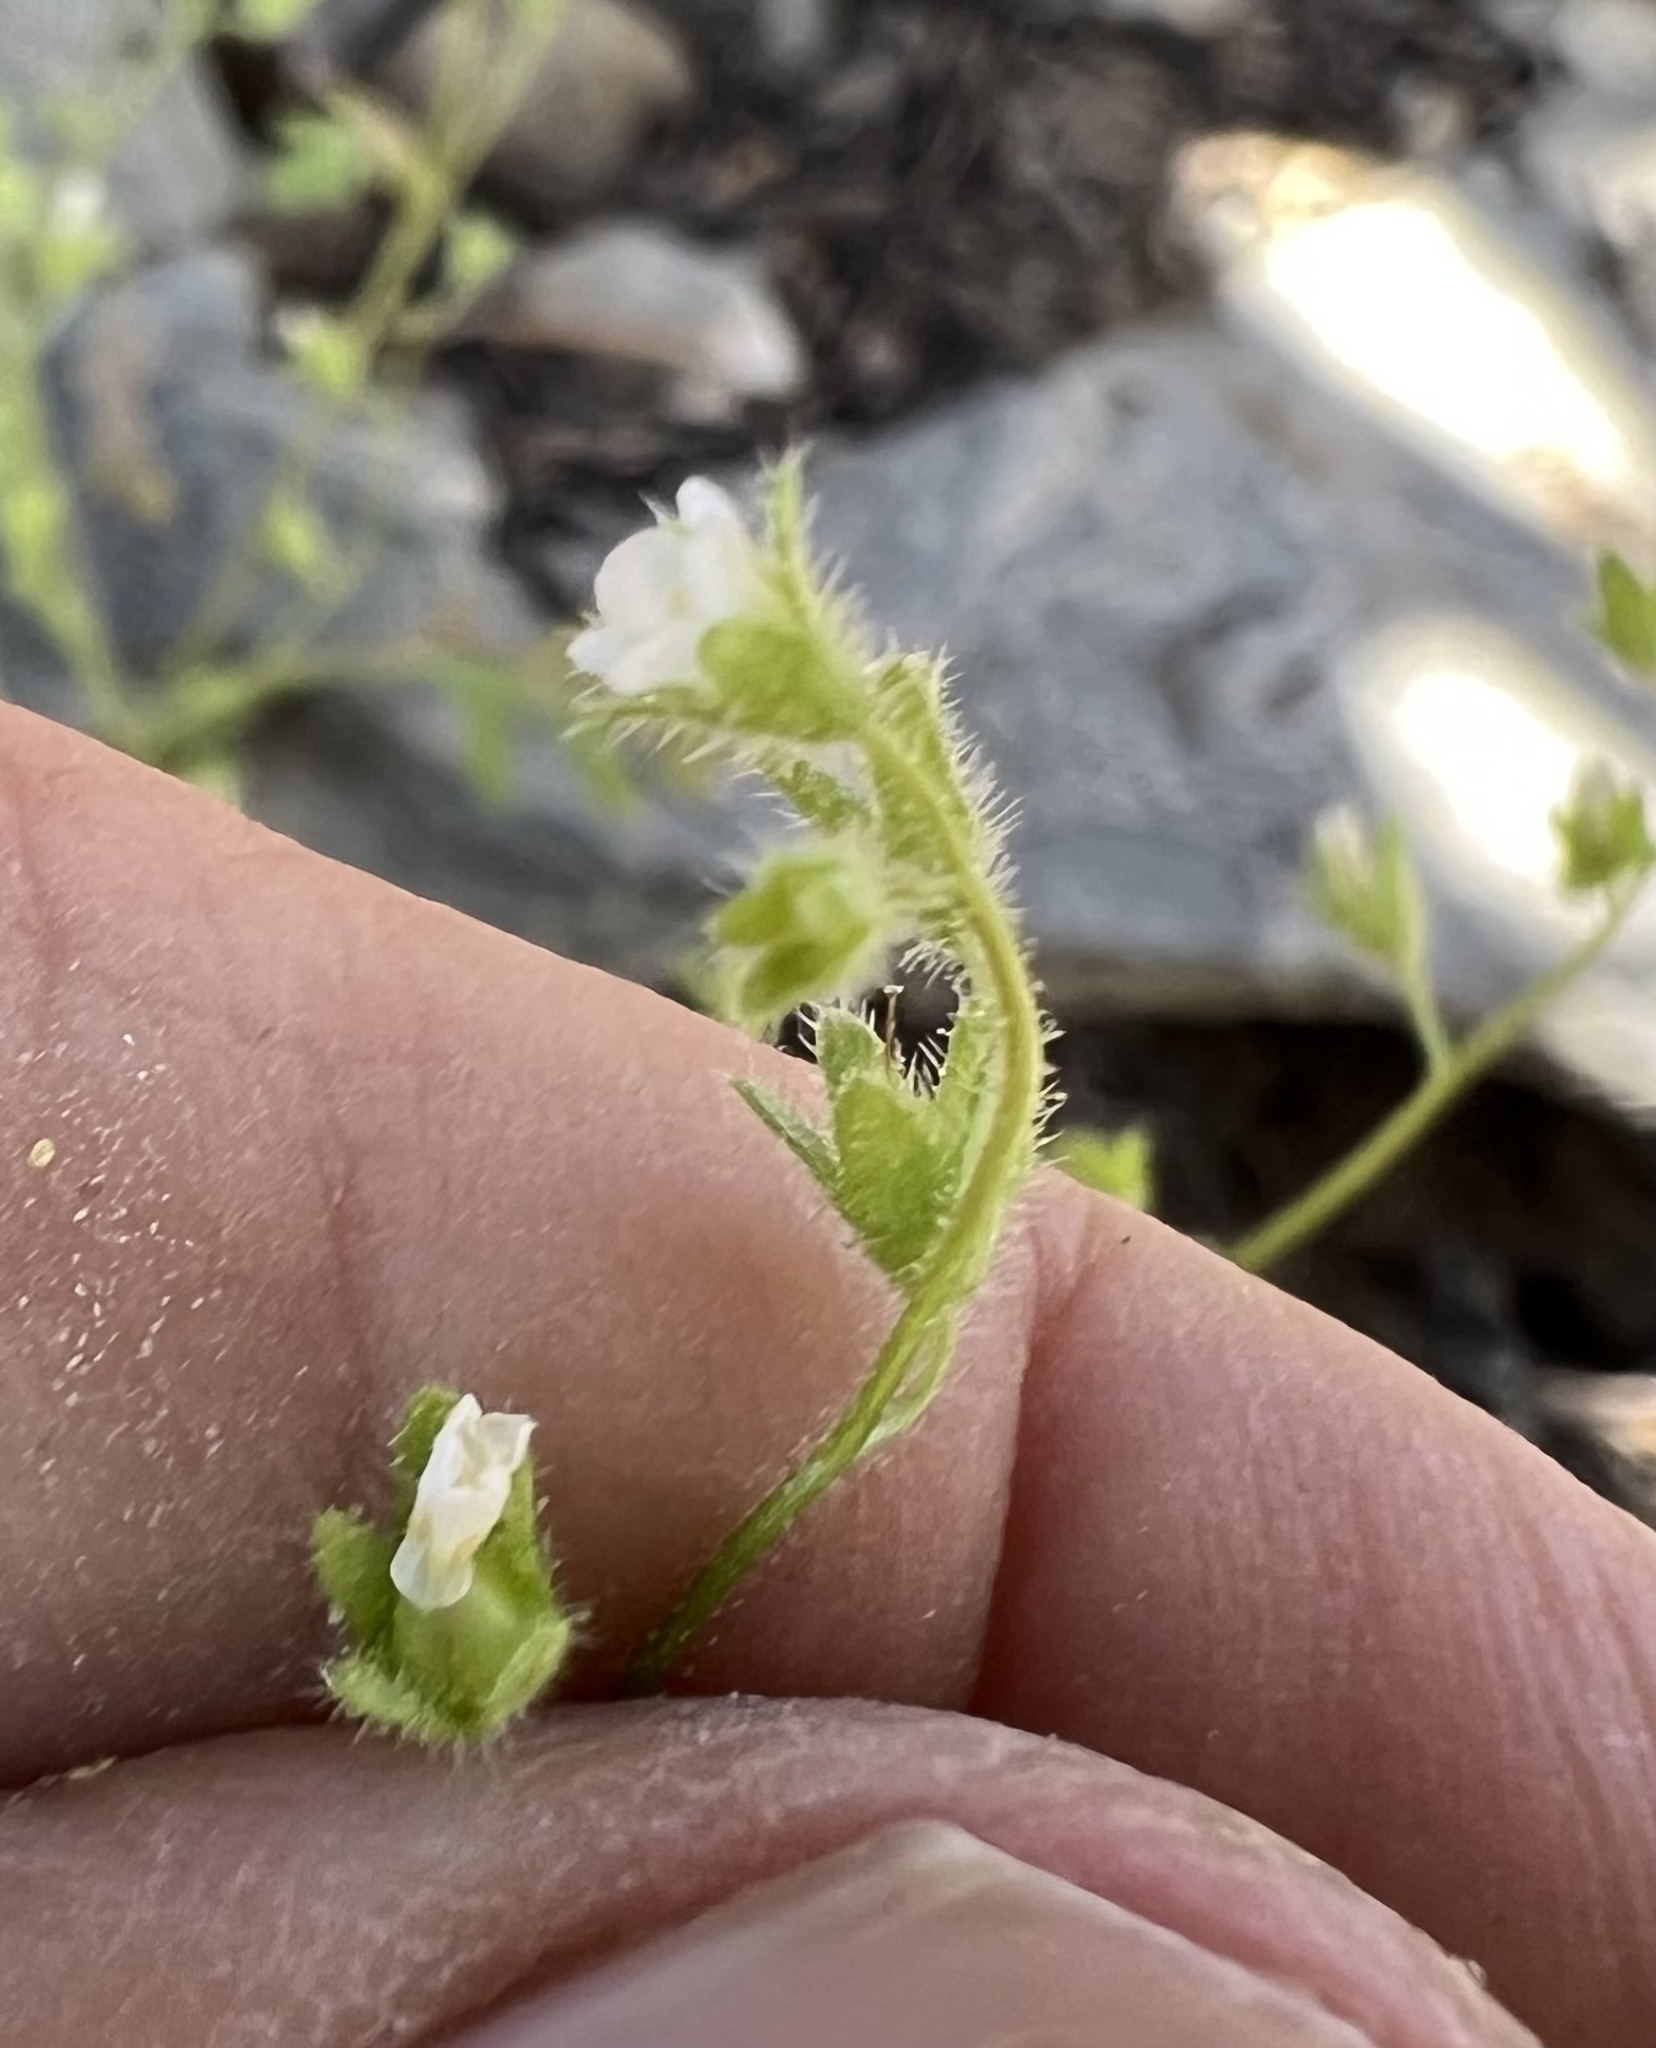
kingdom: Plantae
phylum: Tracheophyta
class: Magnoliopsida
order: Boraginales
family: Hydrophyllaceae
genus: Eucrypta
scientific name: Eucrypta micrantha
